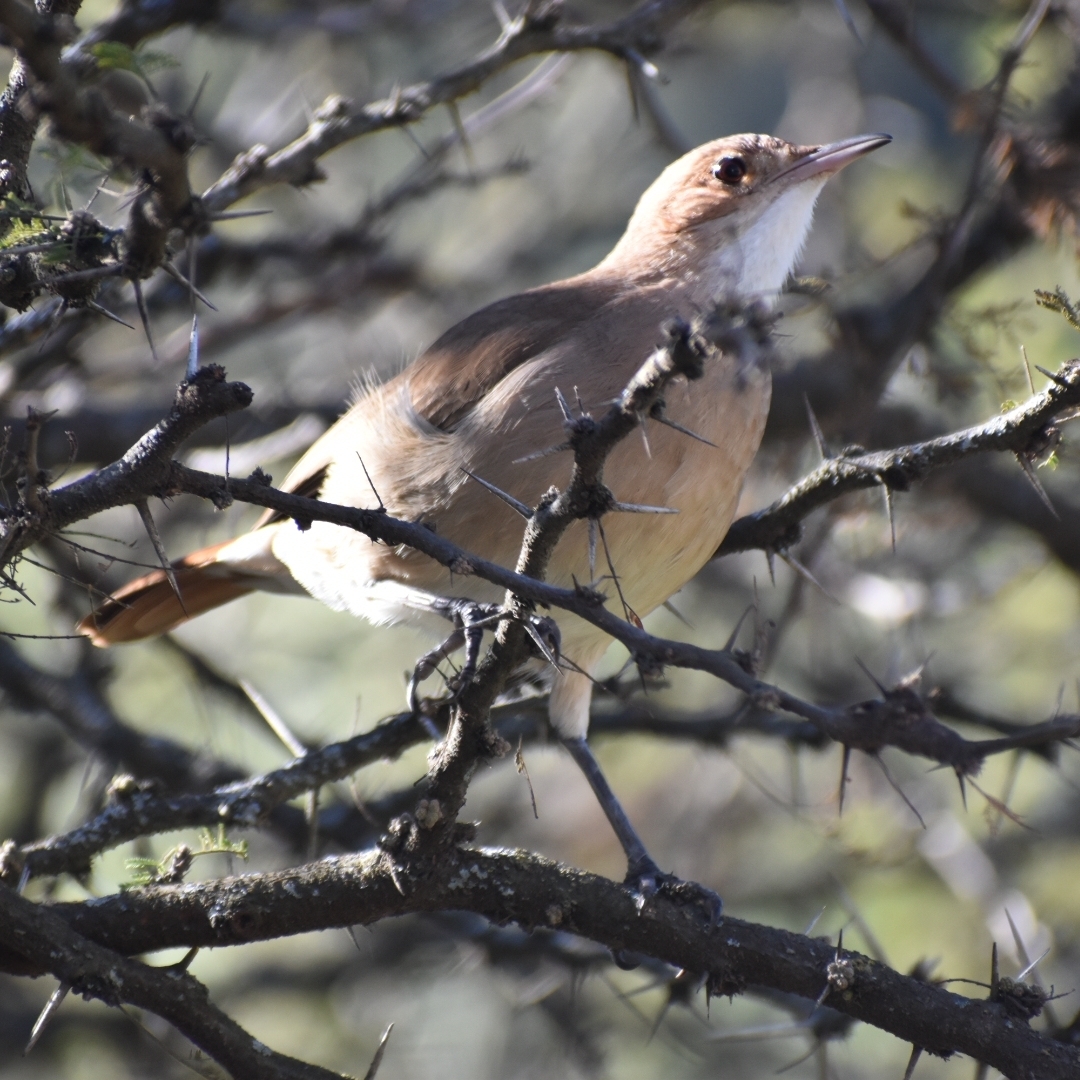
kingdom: Animalia
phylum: Chordata
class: Aves
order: Passeriformes
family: Furnariidae
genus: Furnarius
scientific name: Furnarius rufus
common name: Rufous hornero
